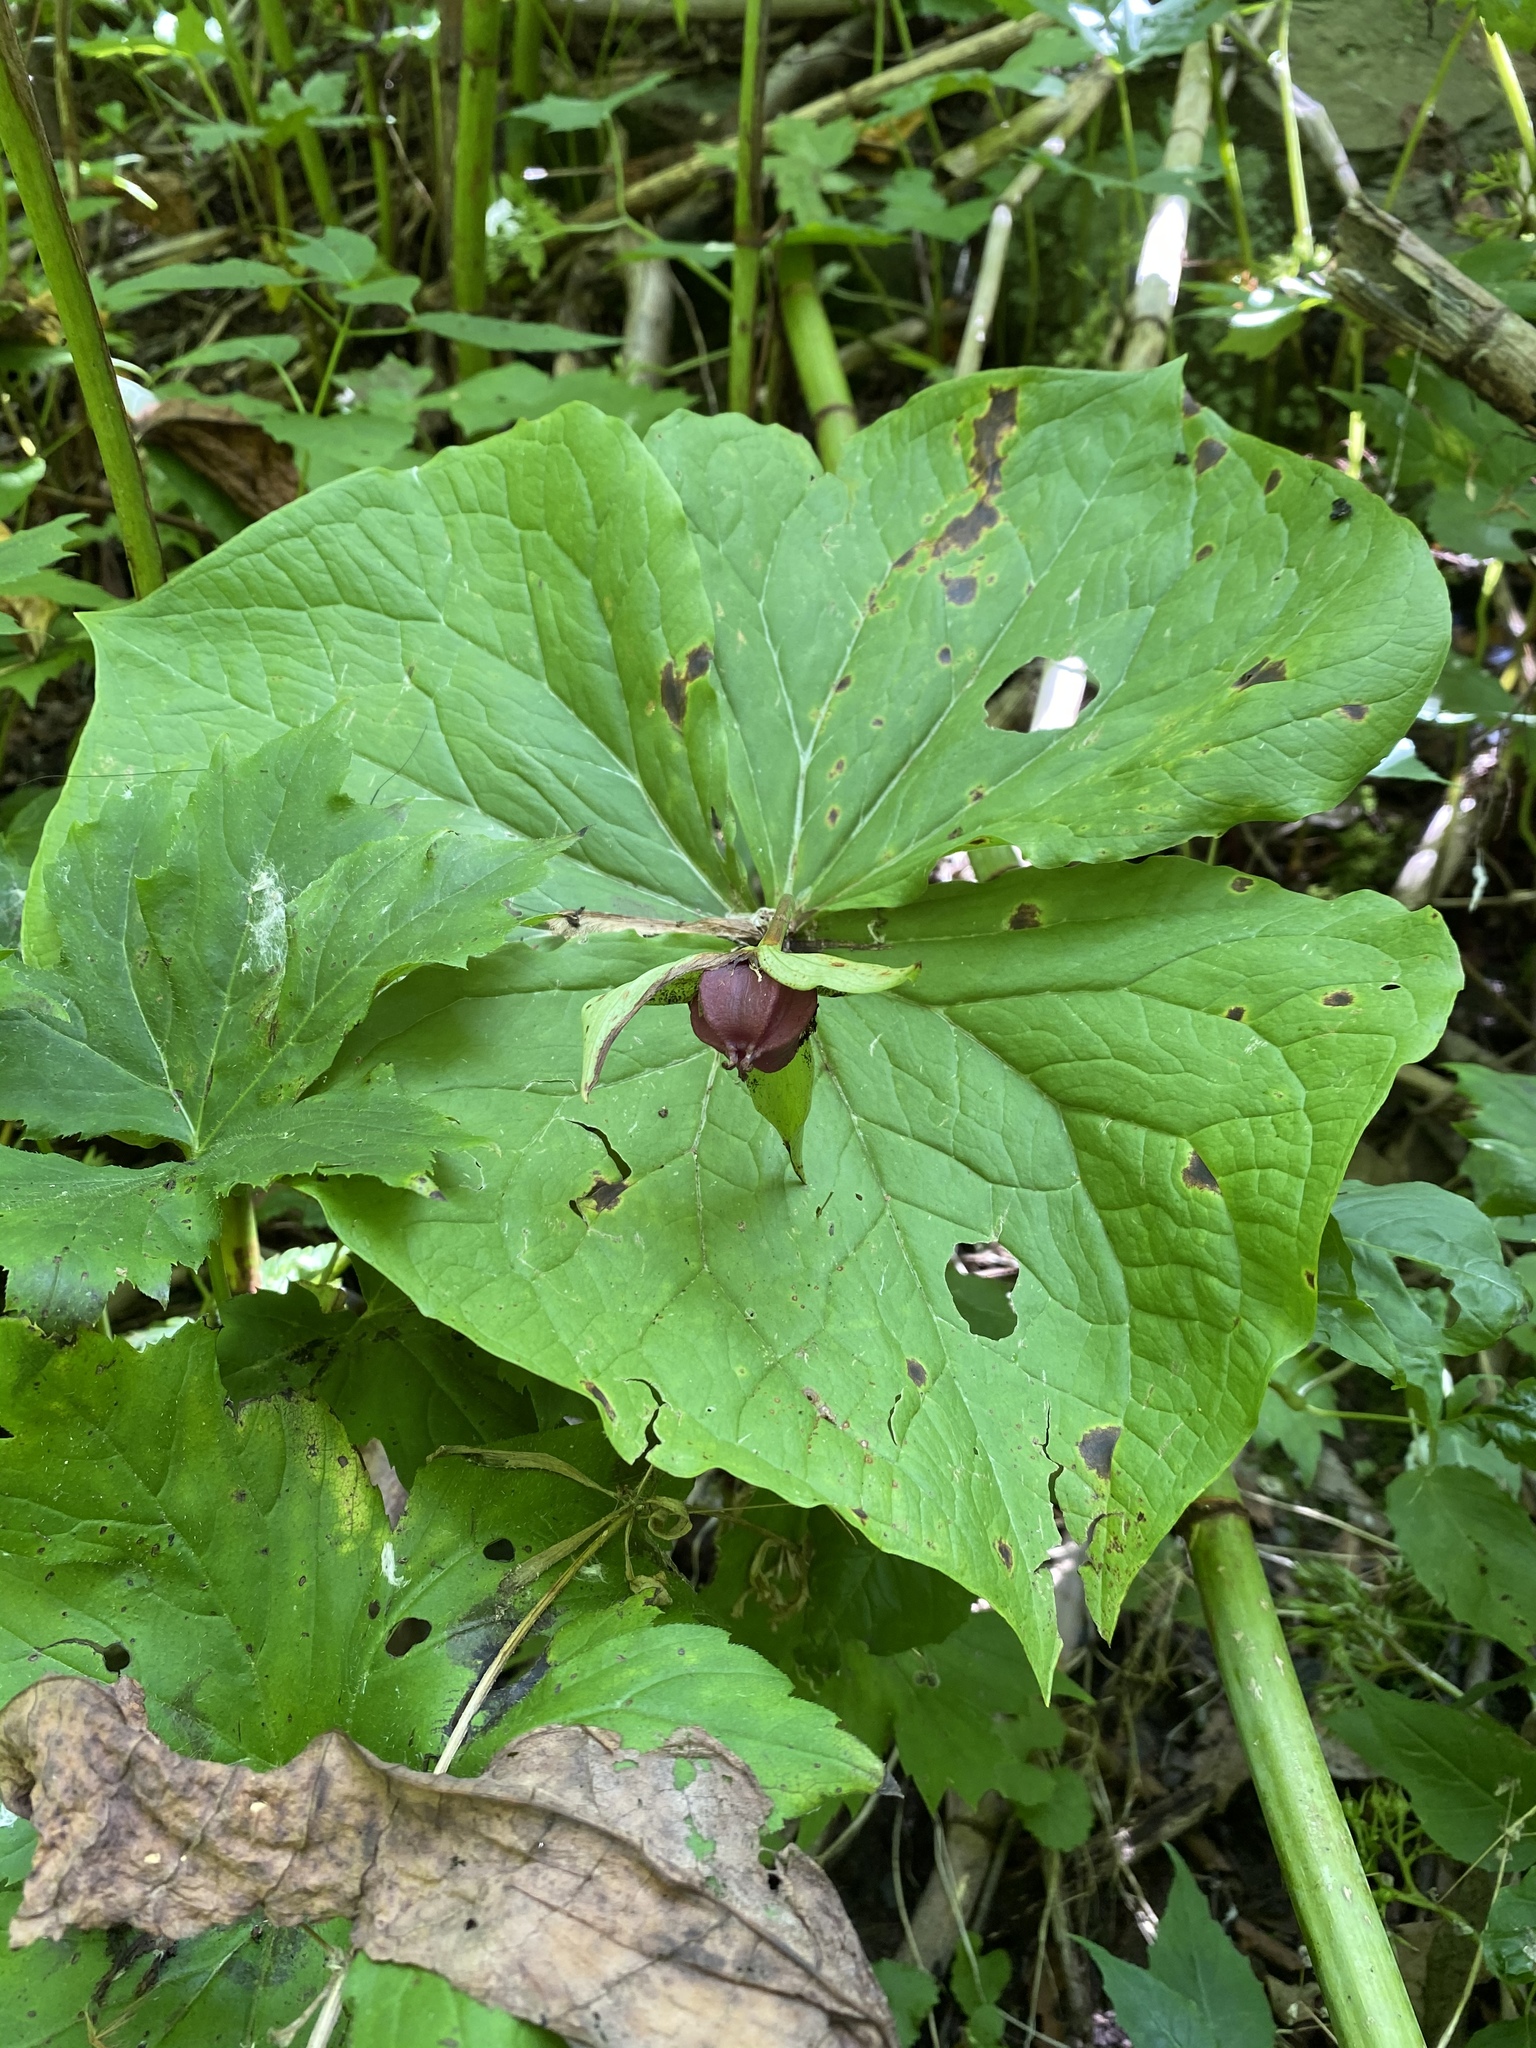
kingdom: Plantae
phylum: Tracheophyta
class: Liliopsida
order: Liliales
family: Melanthiaceae
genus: Trillium
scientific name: Trillium erectum
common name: Purple trillium
